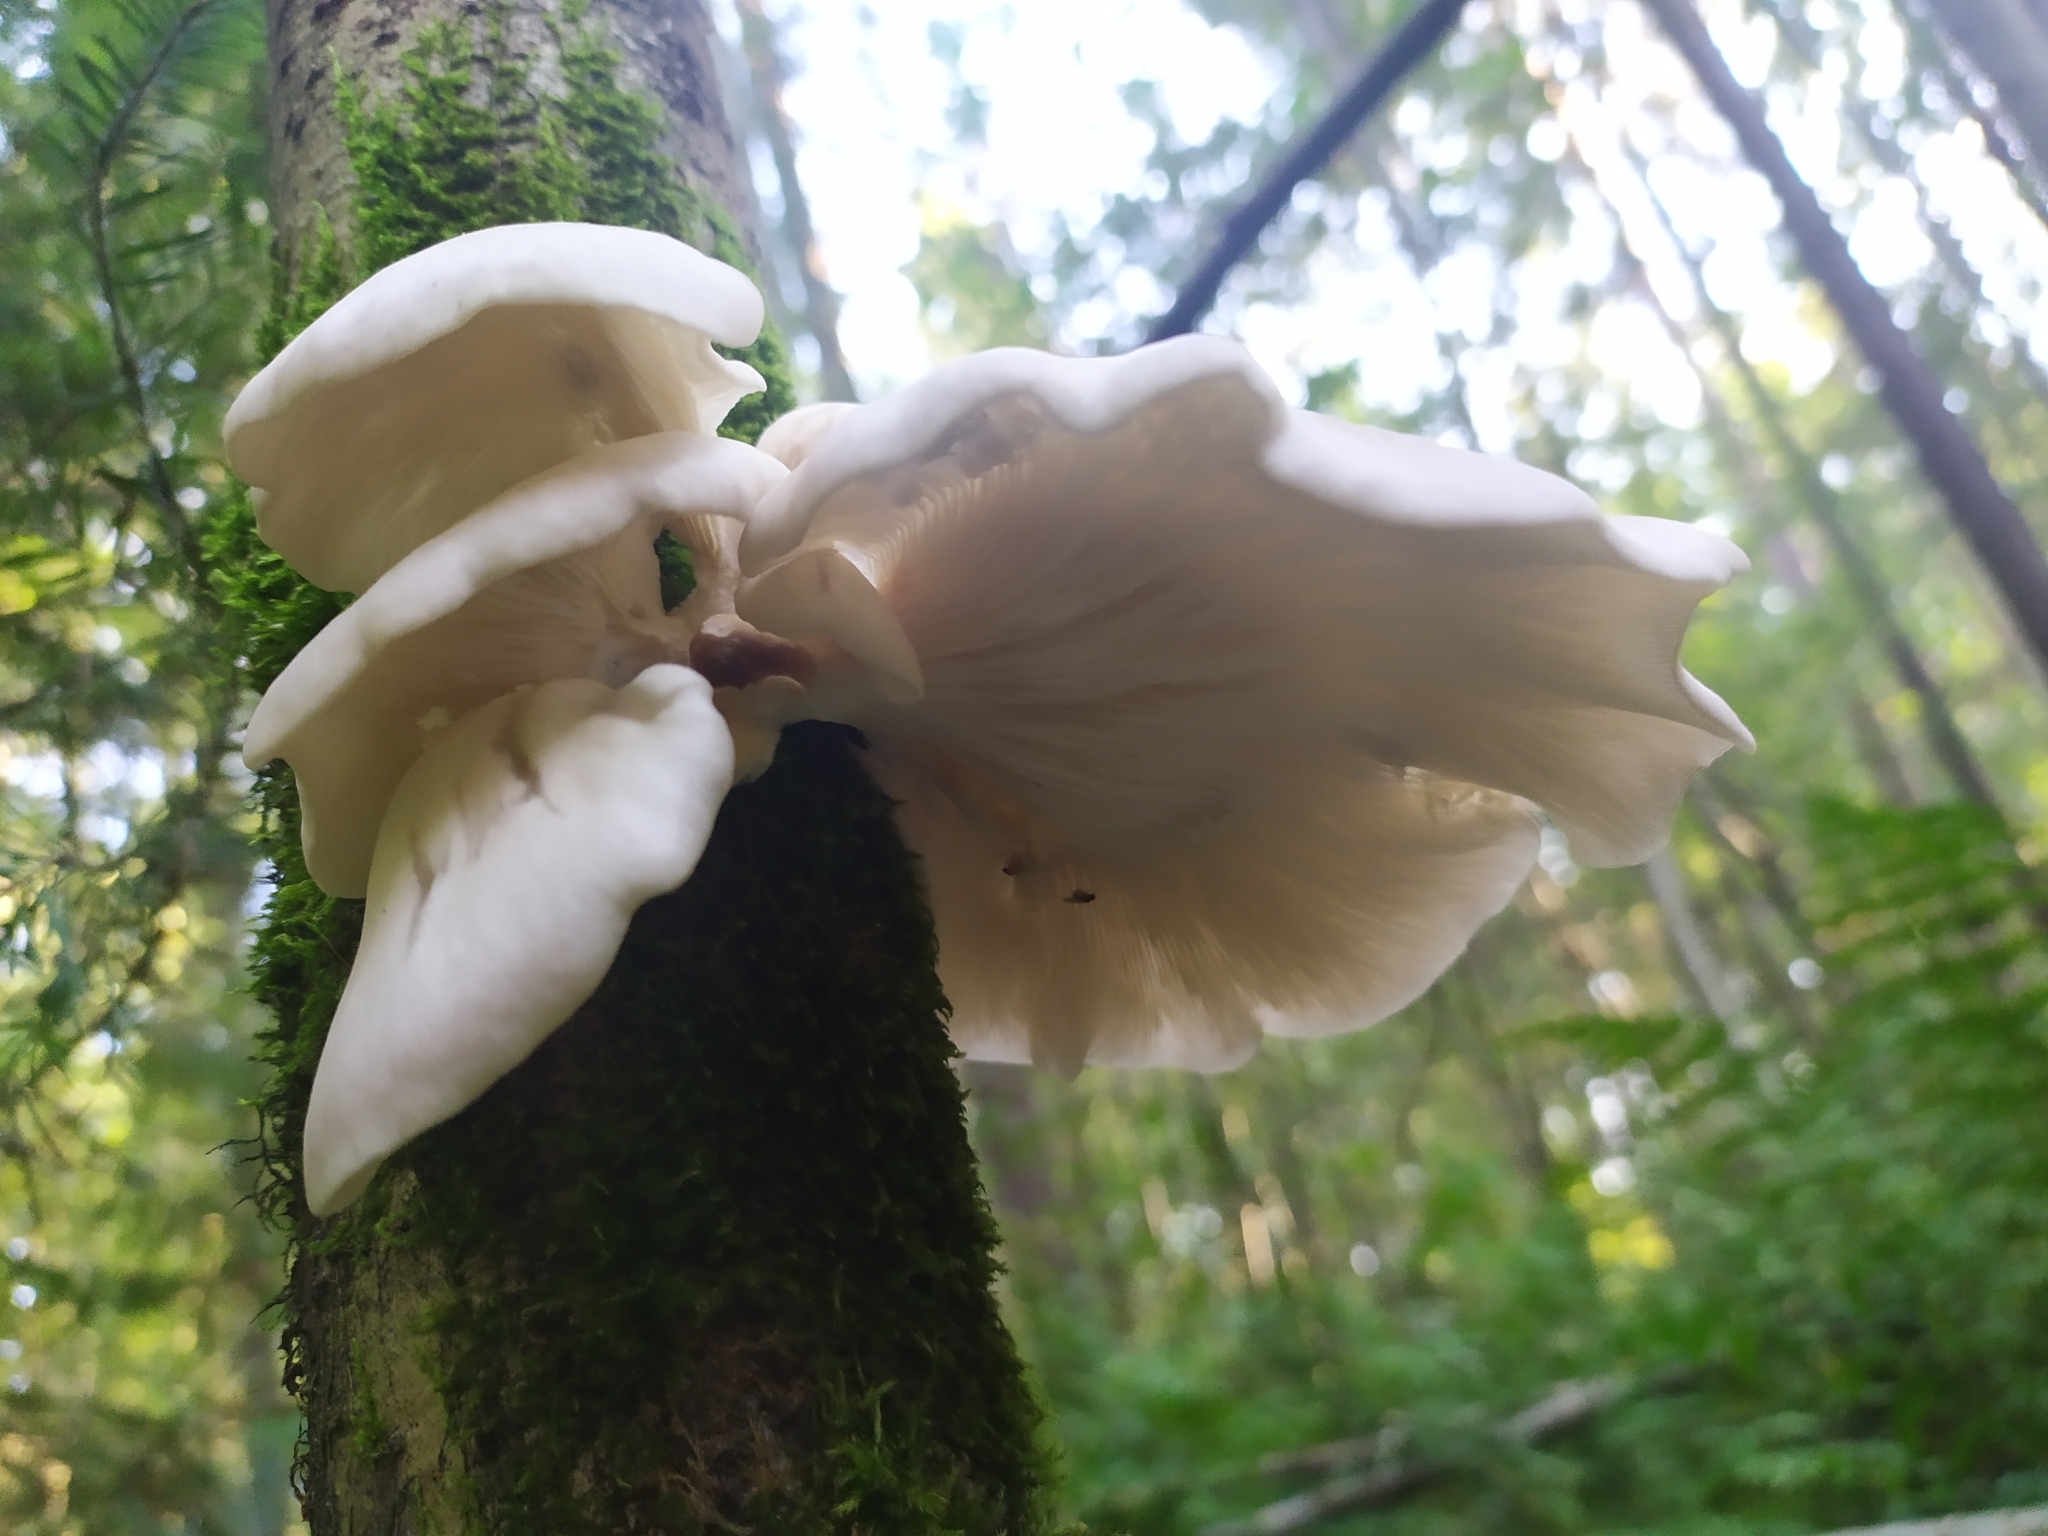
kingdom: Fungi
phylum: Basidiomycota
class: Agaricomycetes
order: Agaricales
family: Pleurotaceae
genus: Pleurotus
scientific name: Pleurotus pulmonarius
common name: Pale oyster
